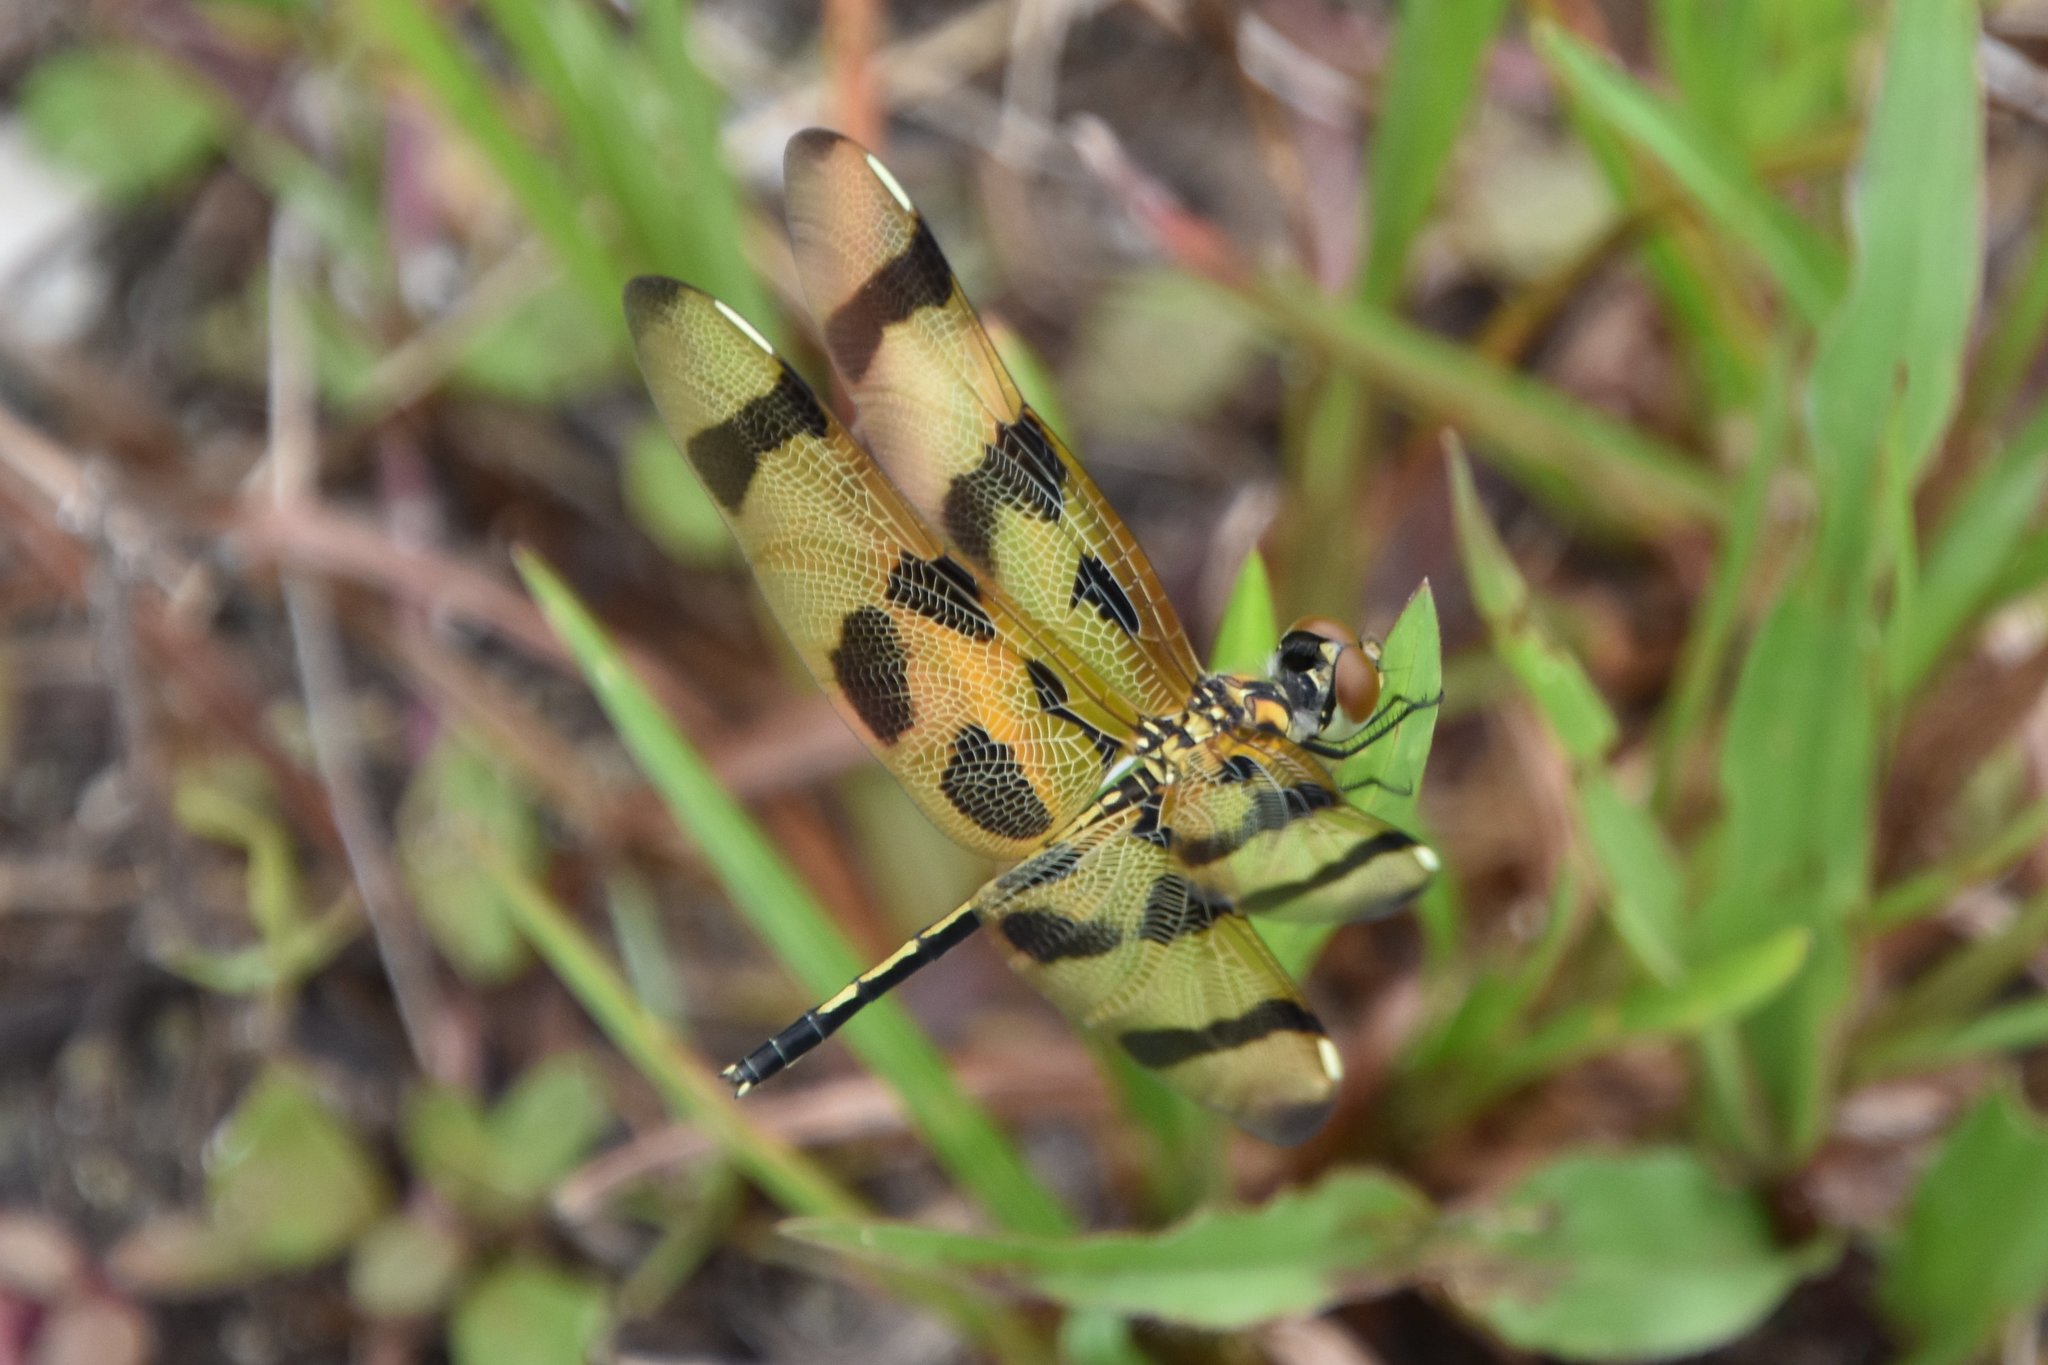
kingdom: Animalia
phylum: Arthropoda
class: Insecta
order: Odonata
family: Libellulidae
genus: Celithemis
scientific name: Celithemis eponina
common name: Halloween pennant
